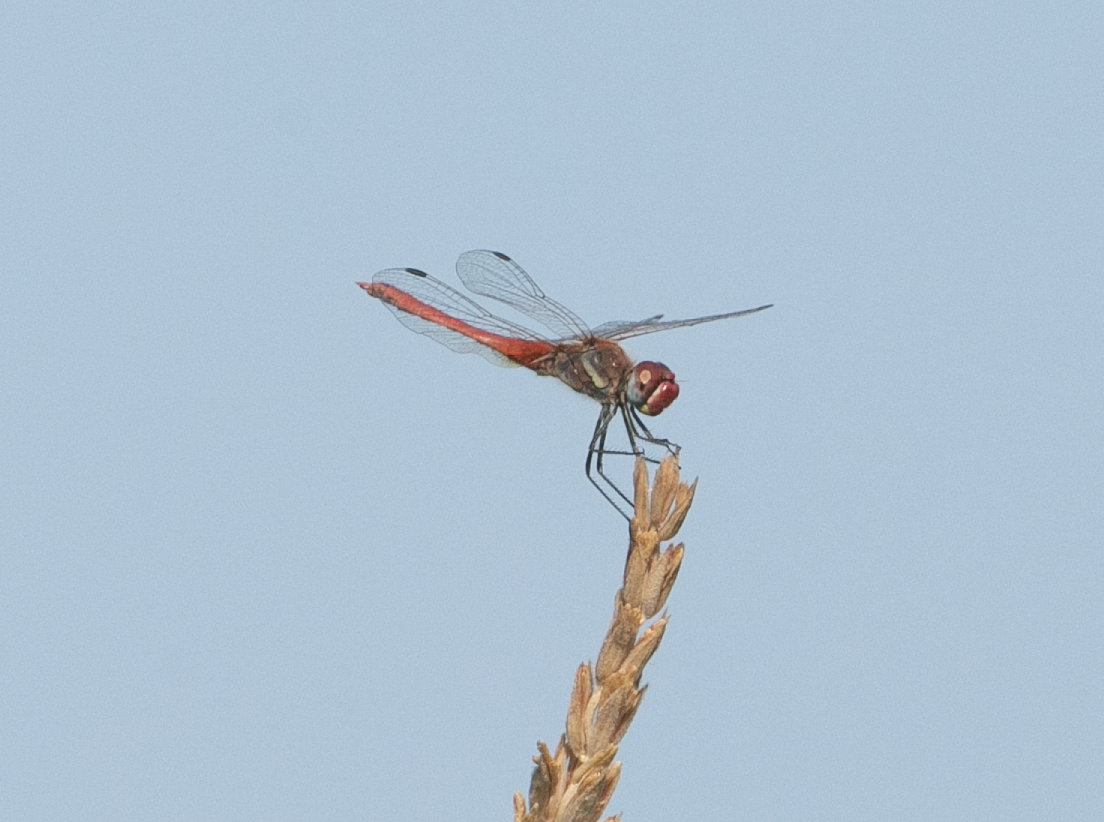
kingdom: Animalia
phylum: Arthropoda
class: Insecta
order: Odonata
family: Libellulidae
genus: Sympetrum
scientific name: Sympetrum fonscolombii
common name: Red-veined darter
